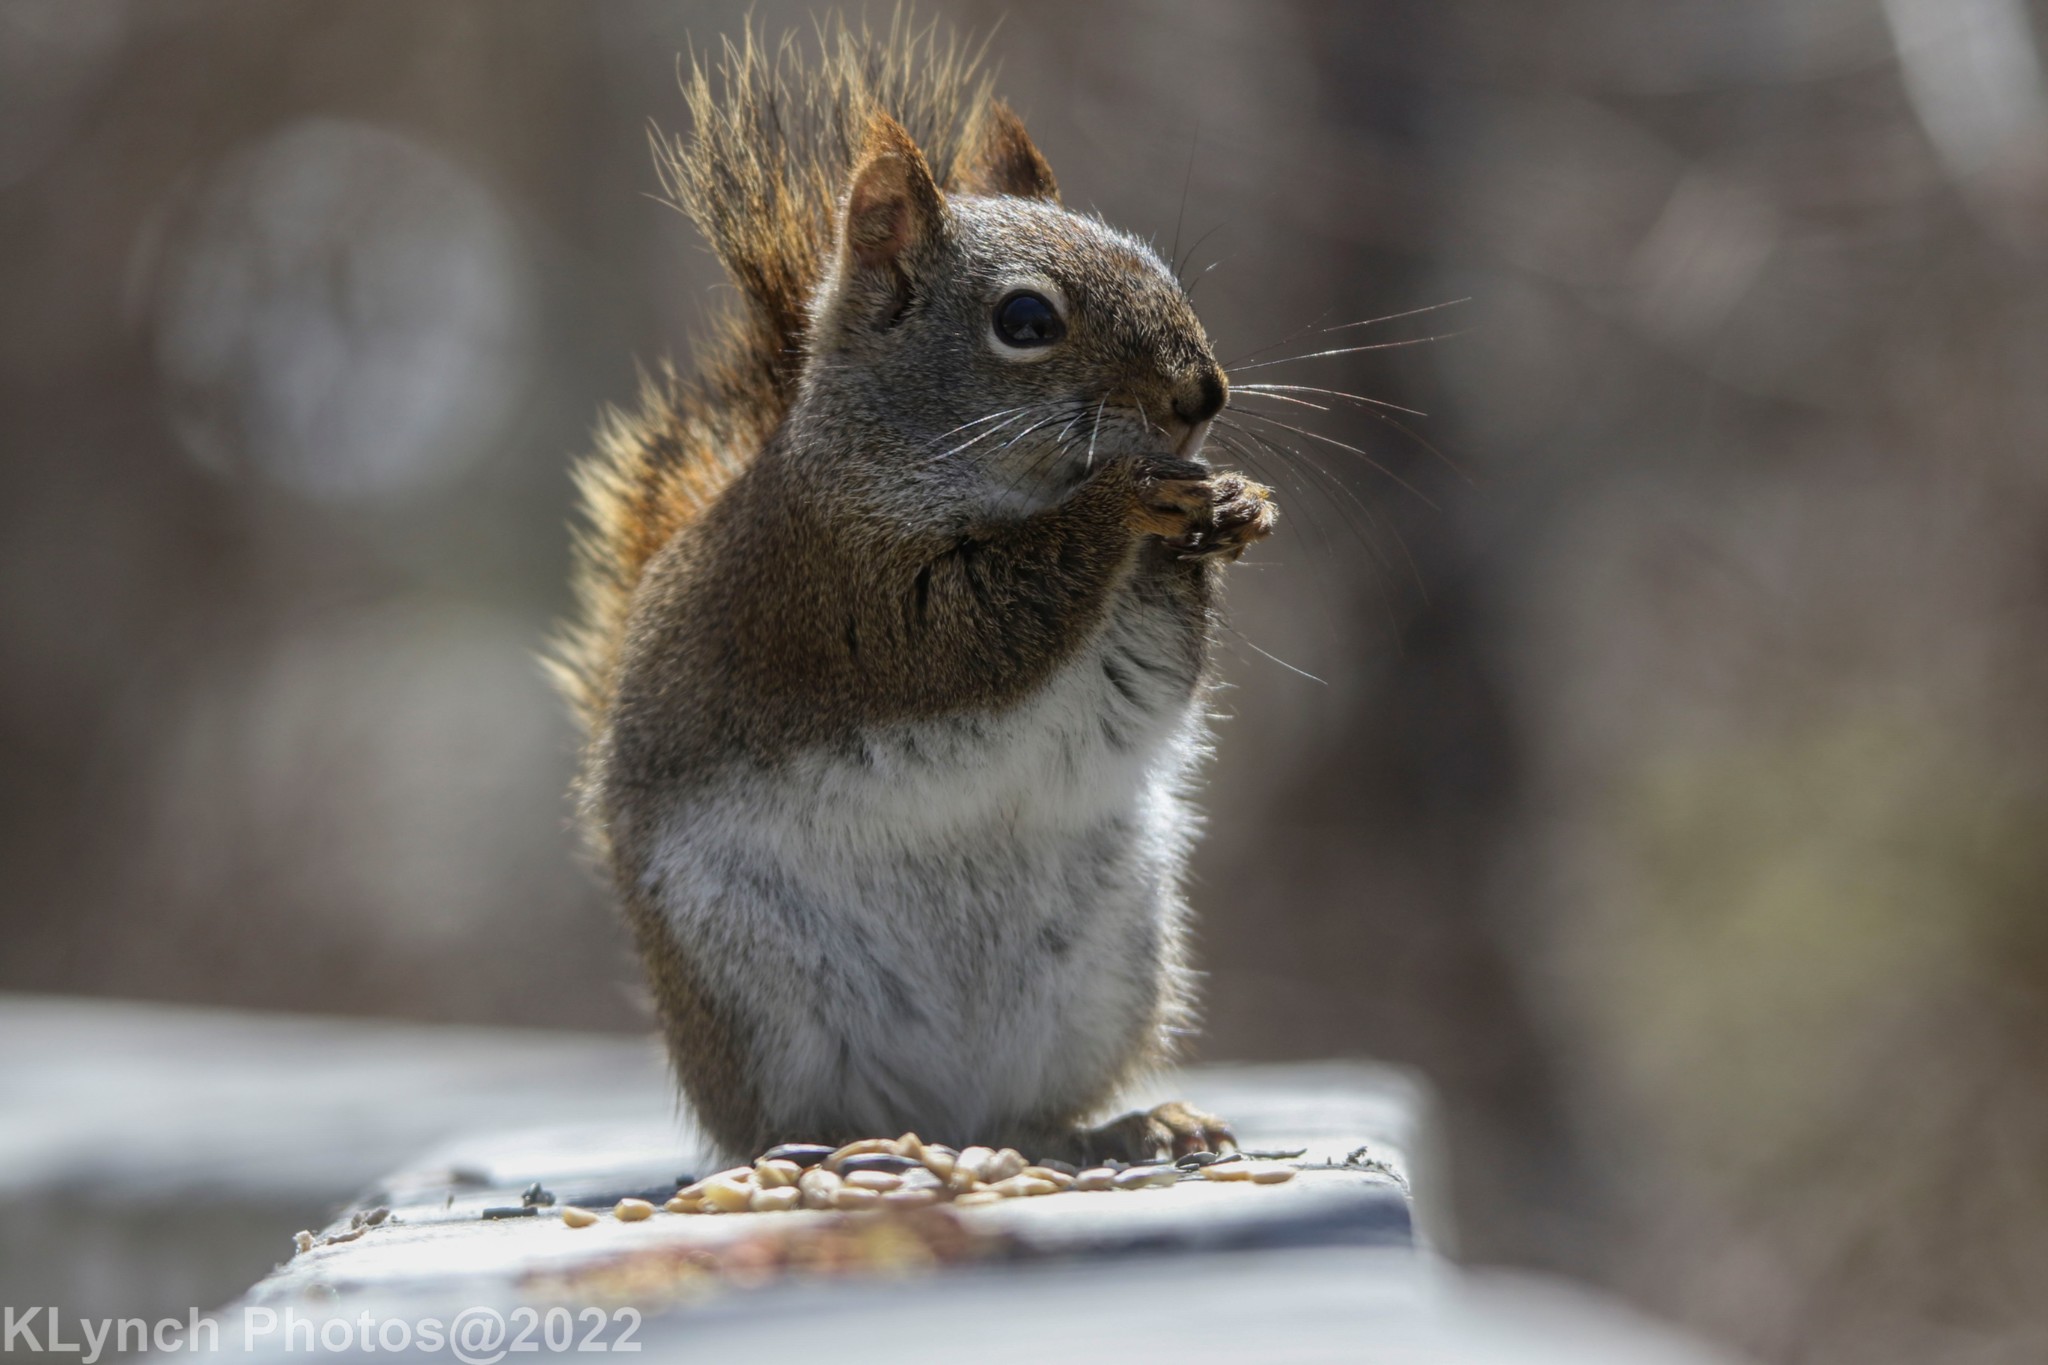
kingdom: Animalia
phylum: Chordata
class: Mammalia
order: Rodentia
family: Sciuridae
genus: Tamiasciurus
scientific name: Tamiasciurus hudsonicus
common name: Red squirrel
